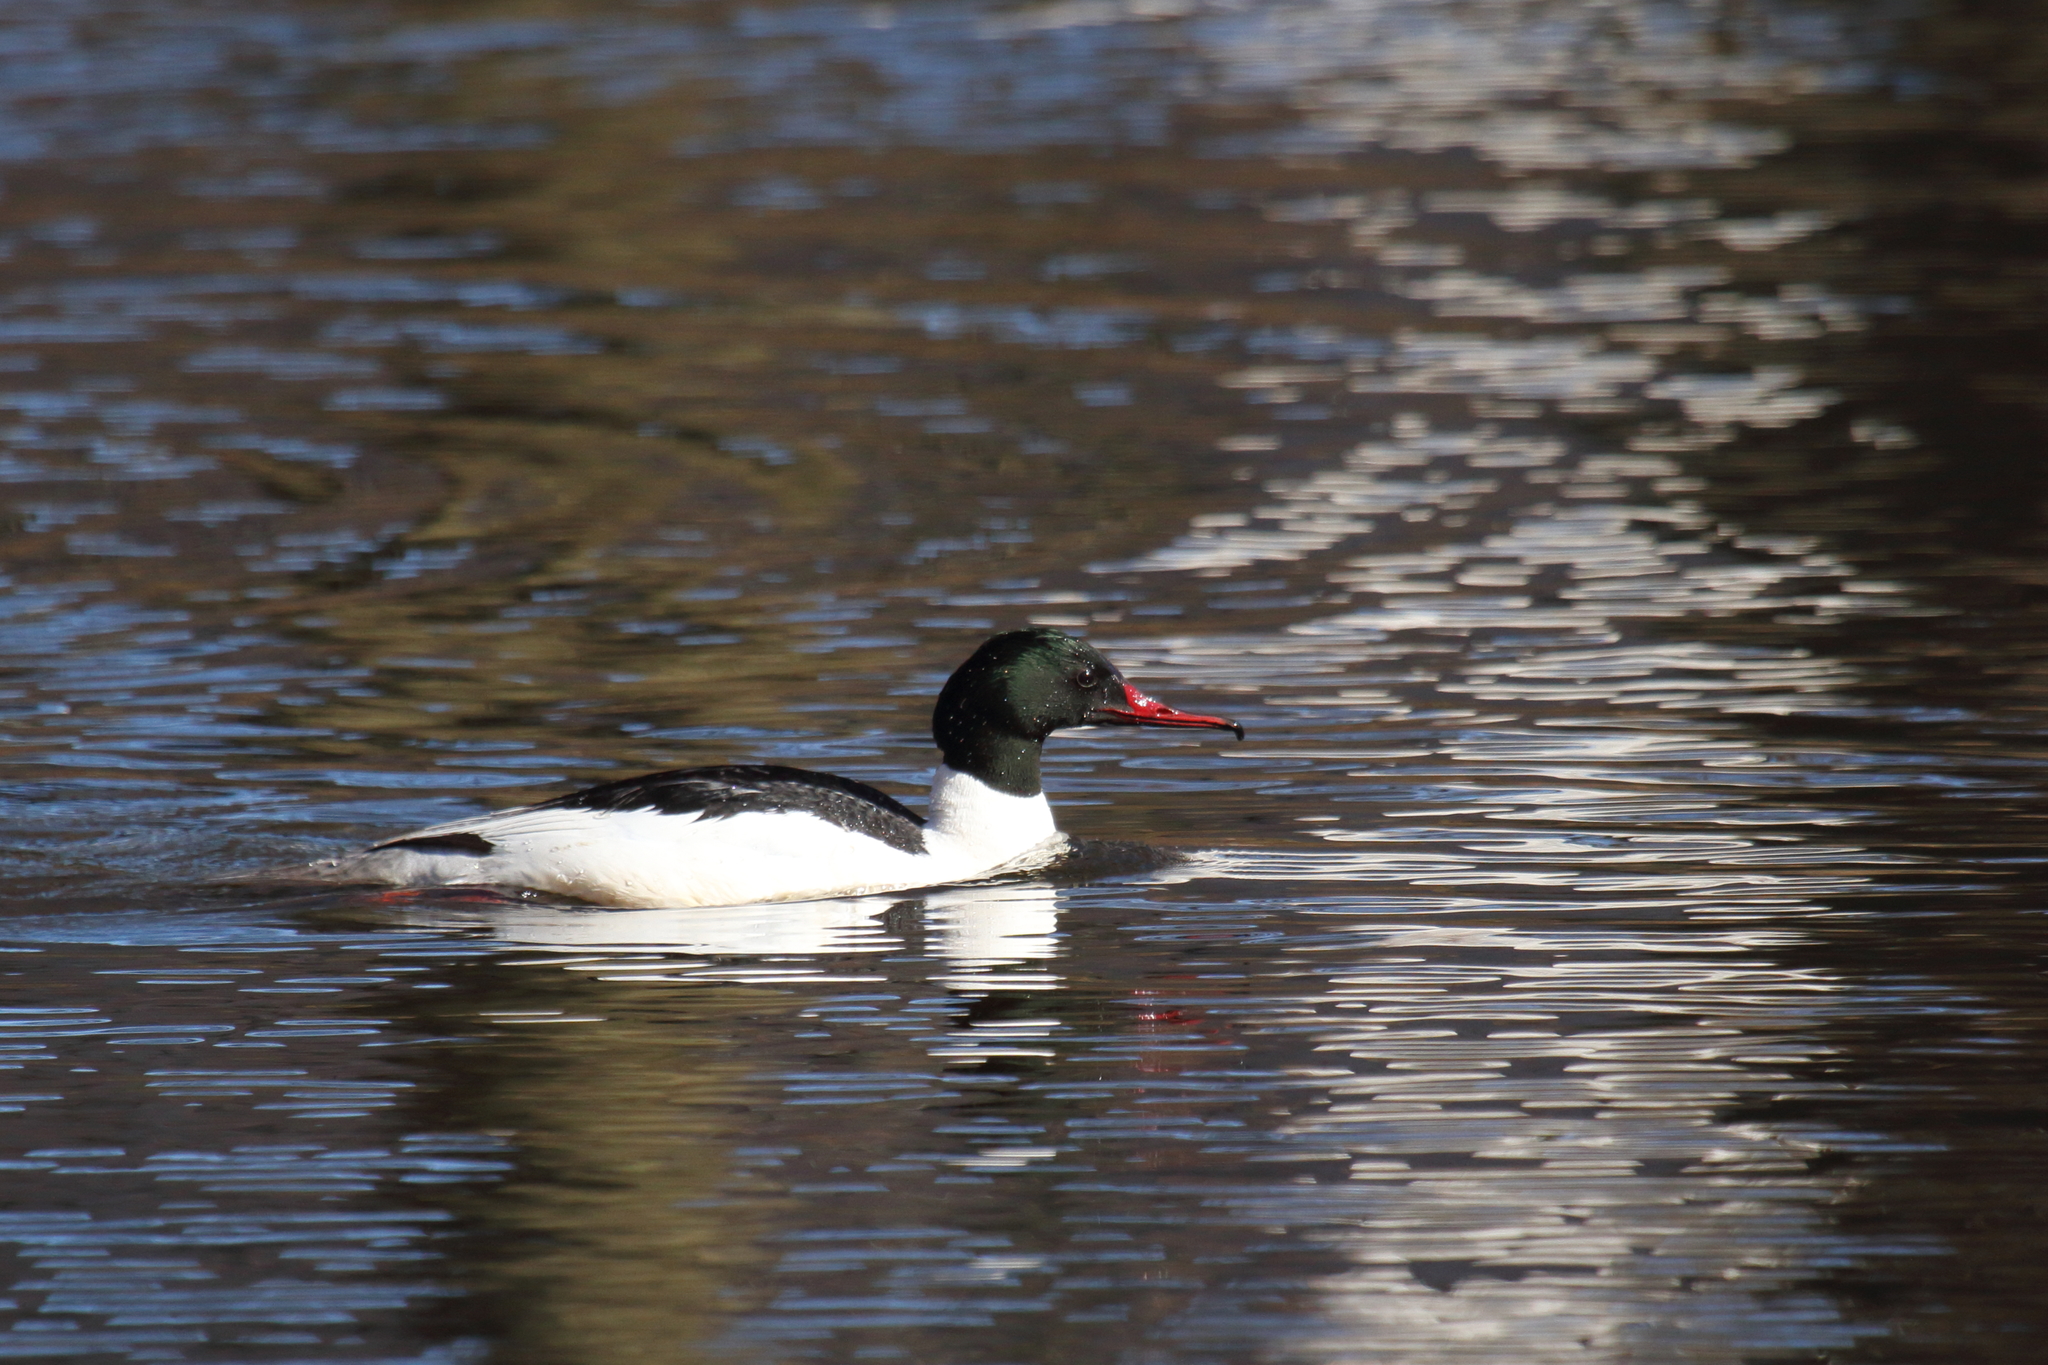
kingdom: Animalia
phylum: Chordata
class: Aves
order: Anseriformes
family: Anatidae
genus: Mergus
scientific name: Mergus merganser
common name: Common merganser
